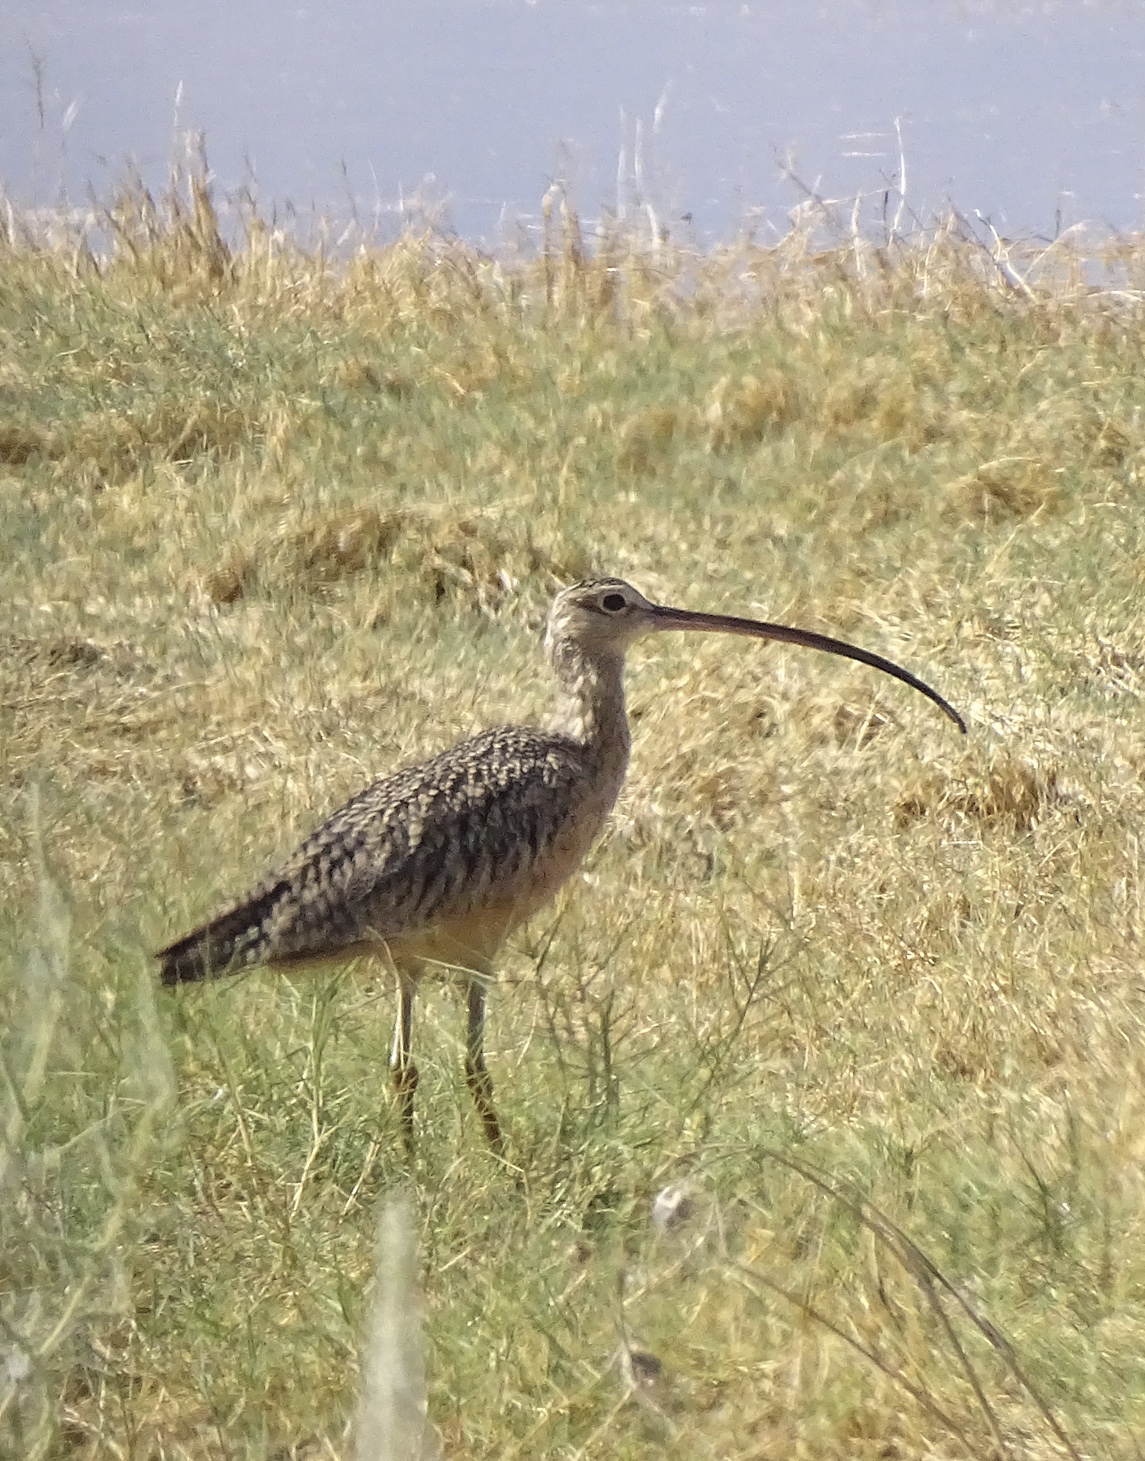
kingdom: Animalia
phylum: Chordata
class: Aves
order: Charadriiformes
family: Scolopacidae
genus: Numenius
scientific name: Numenius americanus
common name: Long-billed curlew
